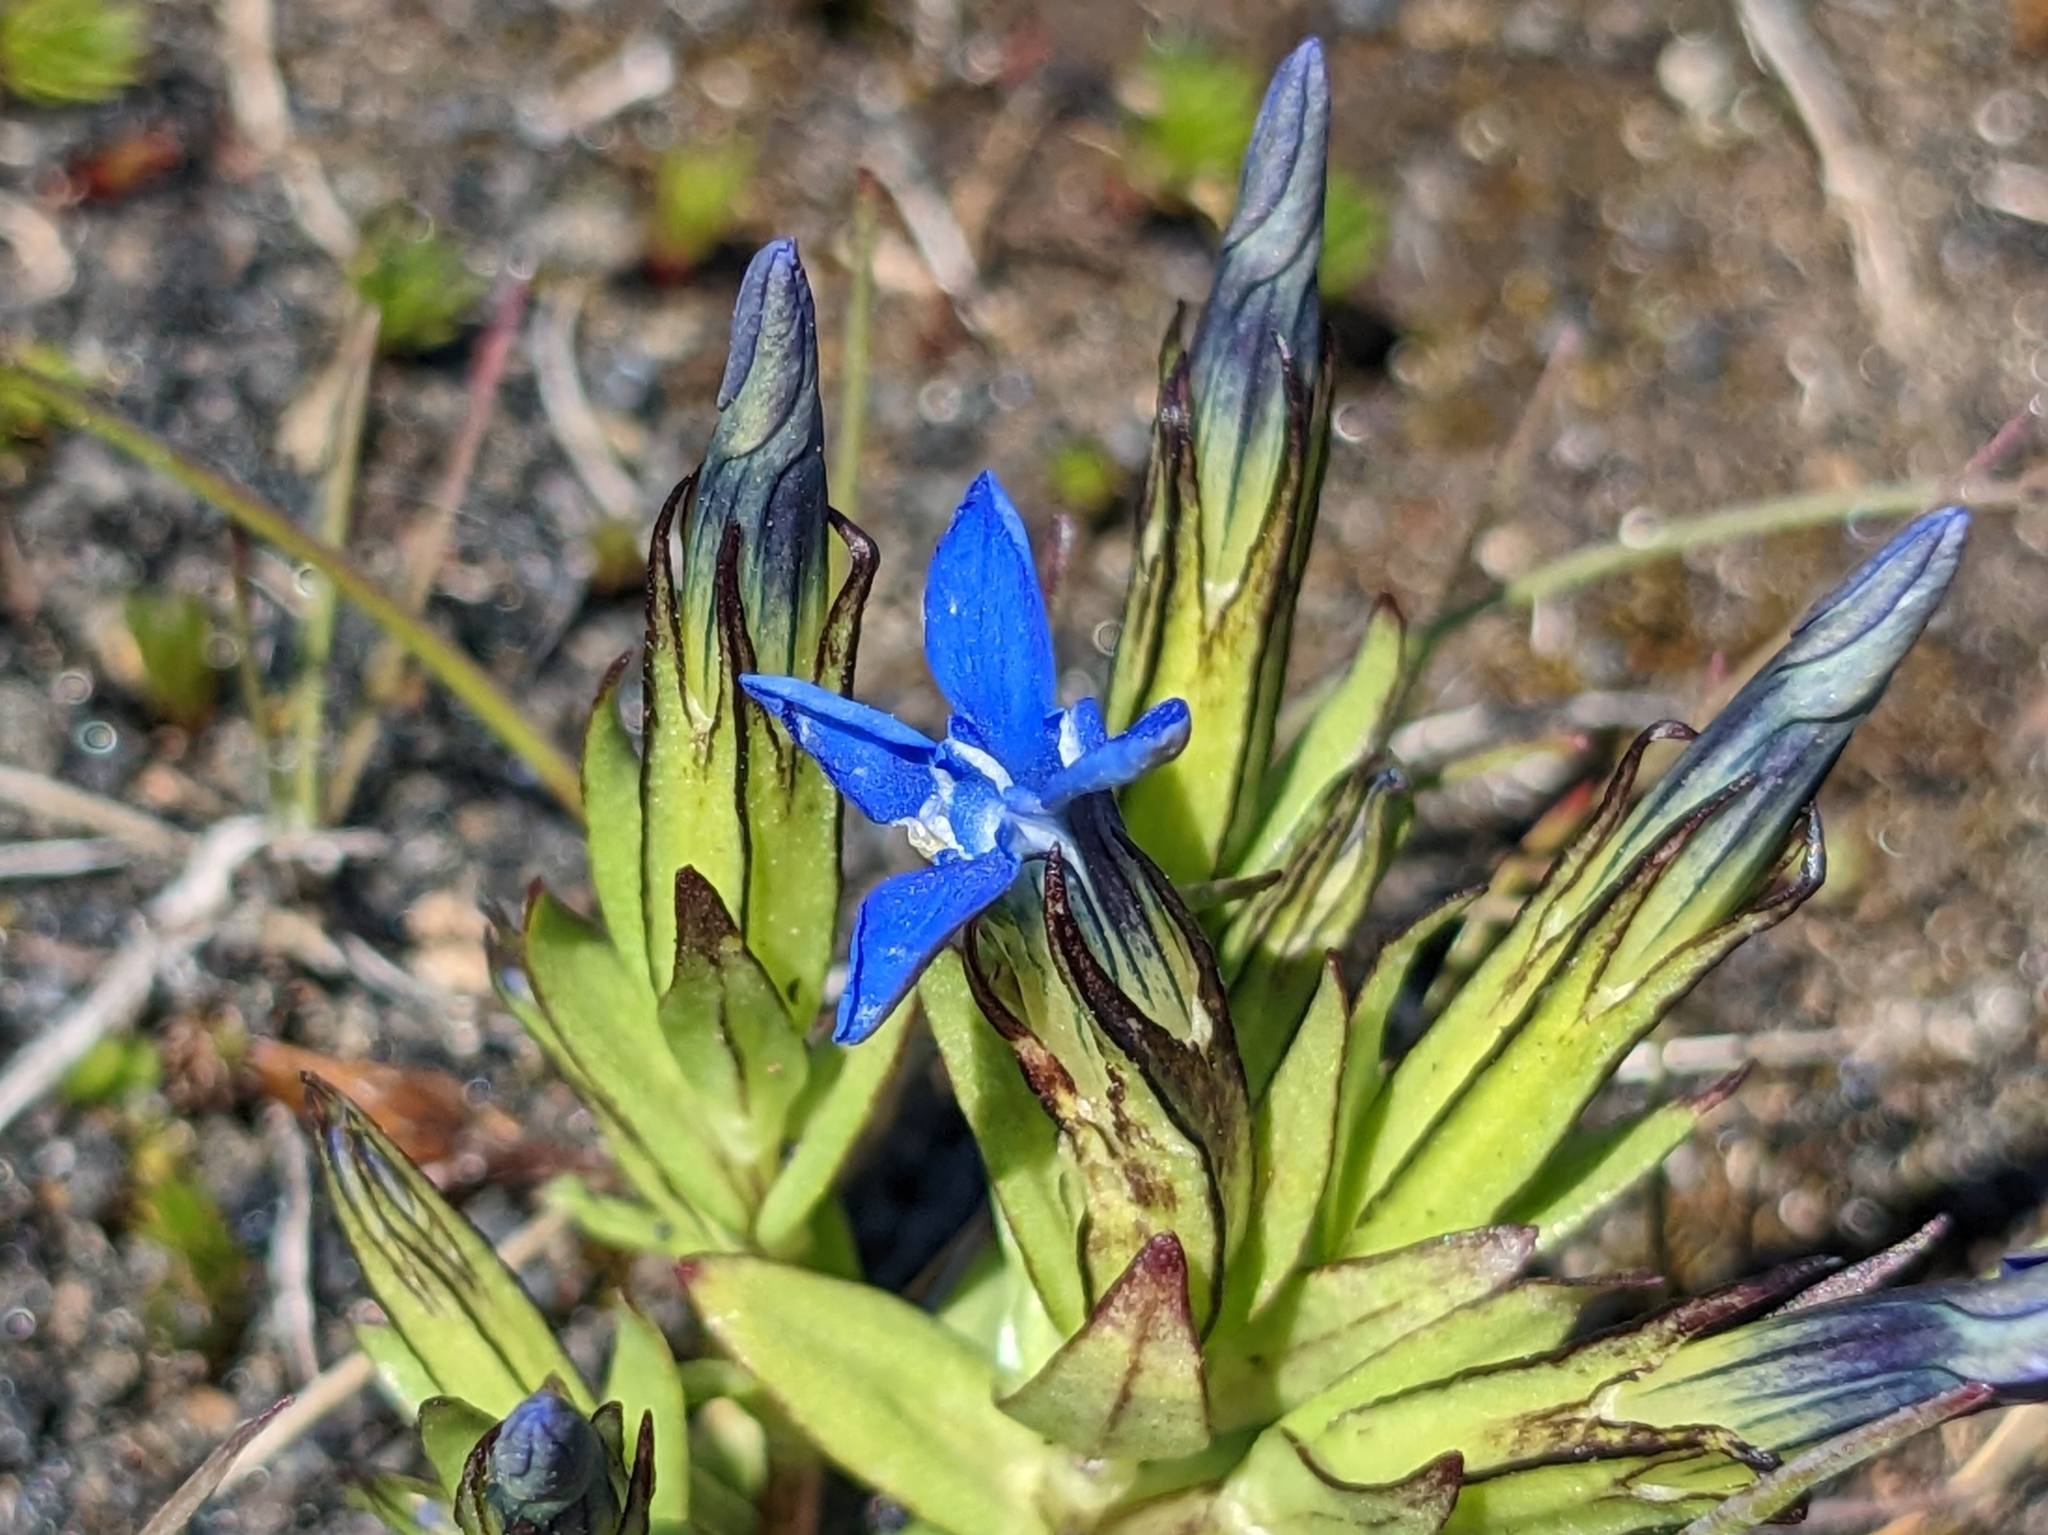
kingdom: Plantae
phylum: Tracheophyta
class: Magnoliopsida
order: Gentianales
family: Gentianaceae
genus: Gentiana
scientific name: Gentiana nivalis
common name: Alpine gentian
